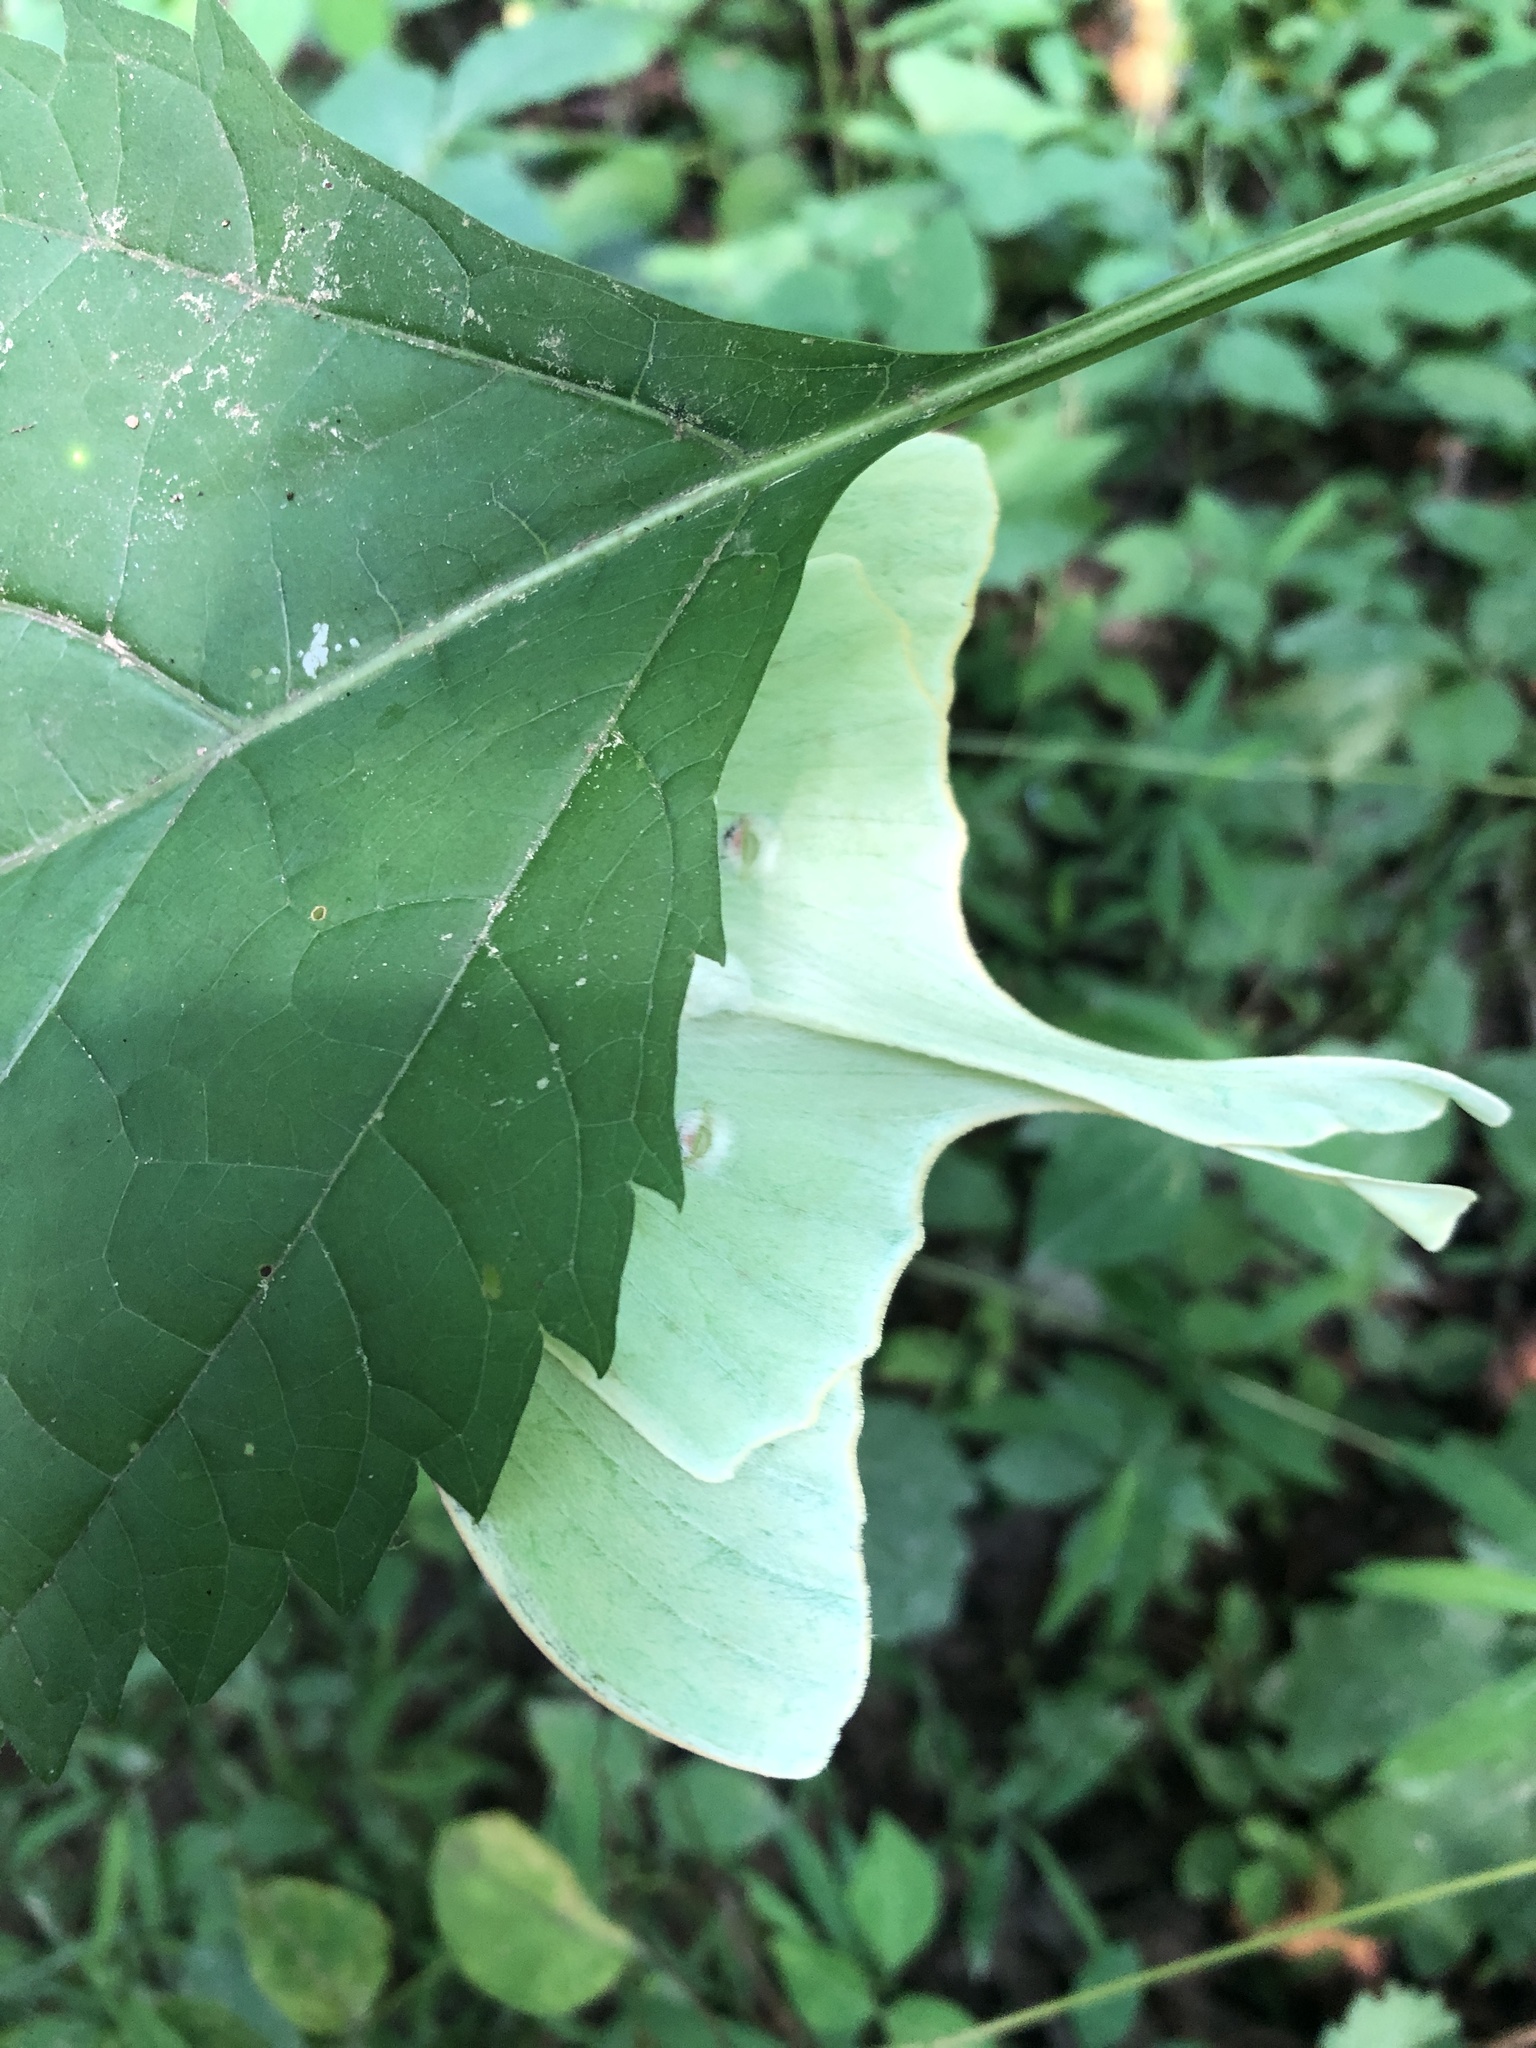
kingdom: Animalia
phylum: Arthropoda
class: Insecta
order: Lepidoptera
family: Saturniidae
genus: Actias
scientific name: Actias luna
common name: Luna moth
